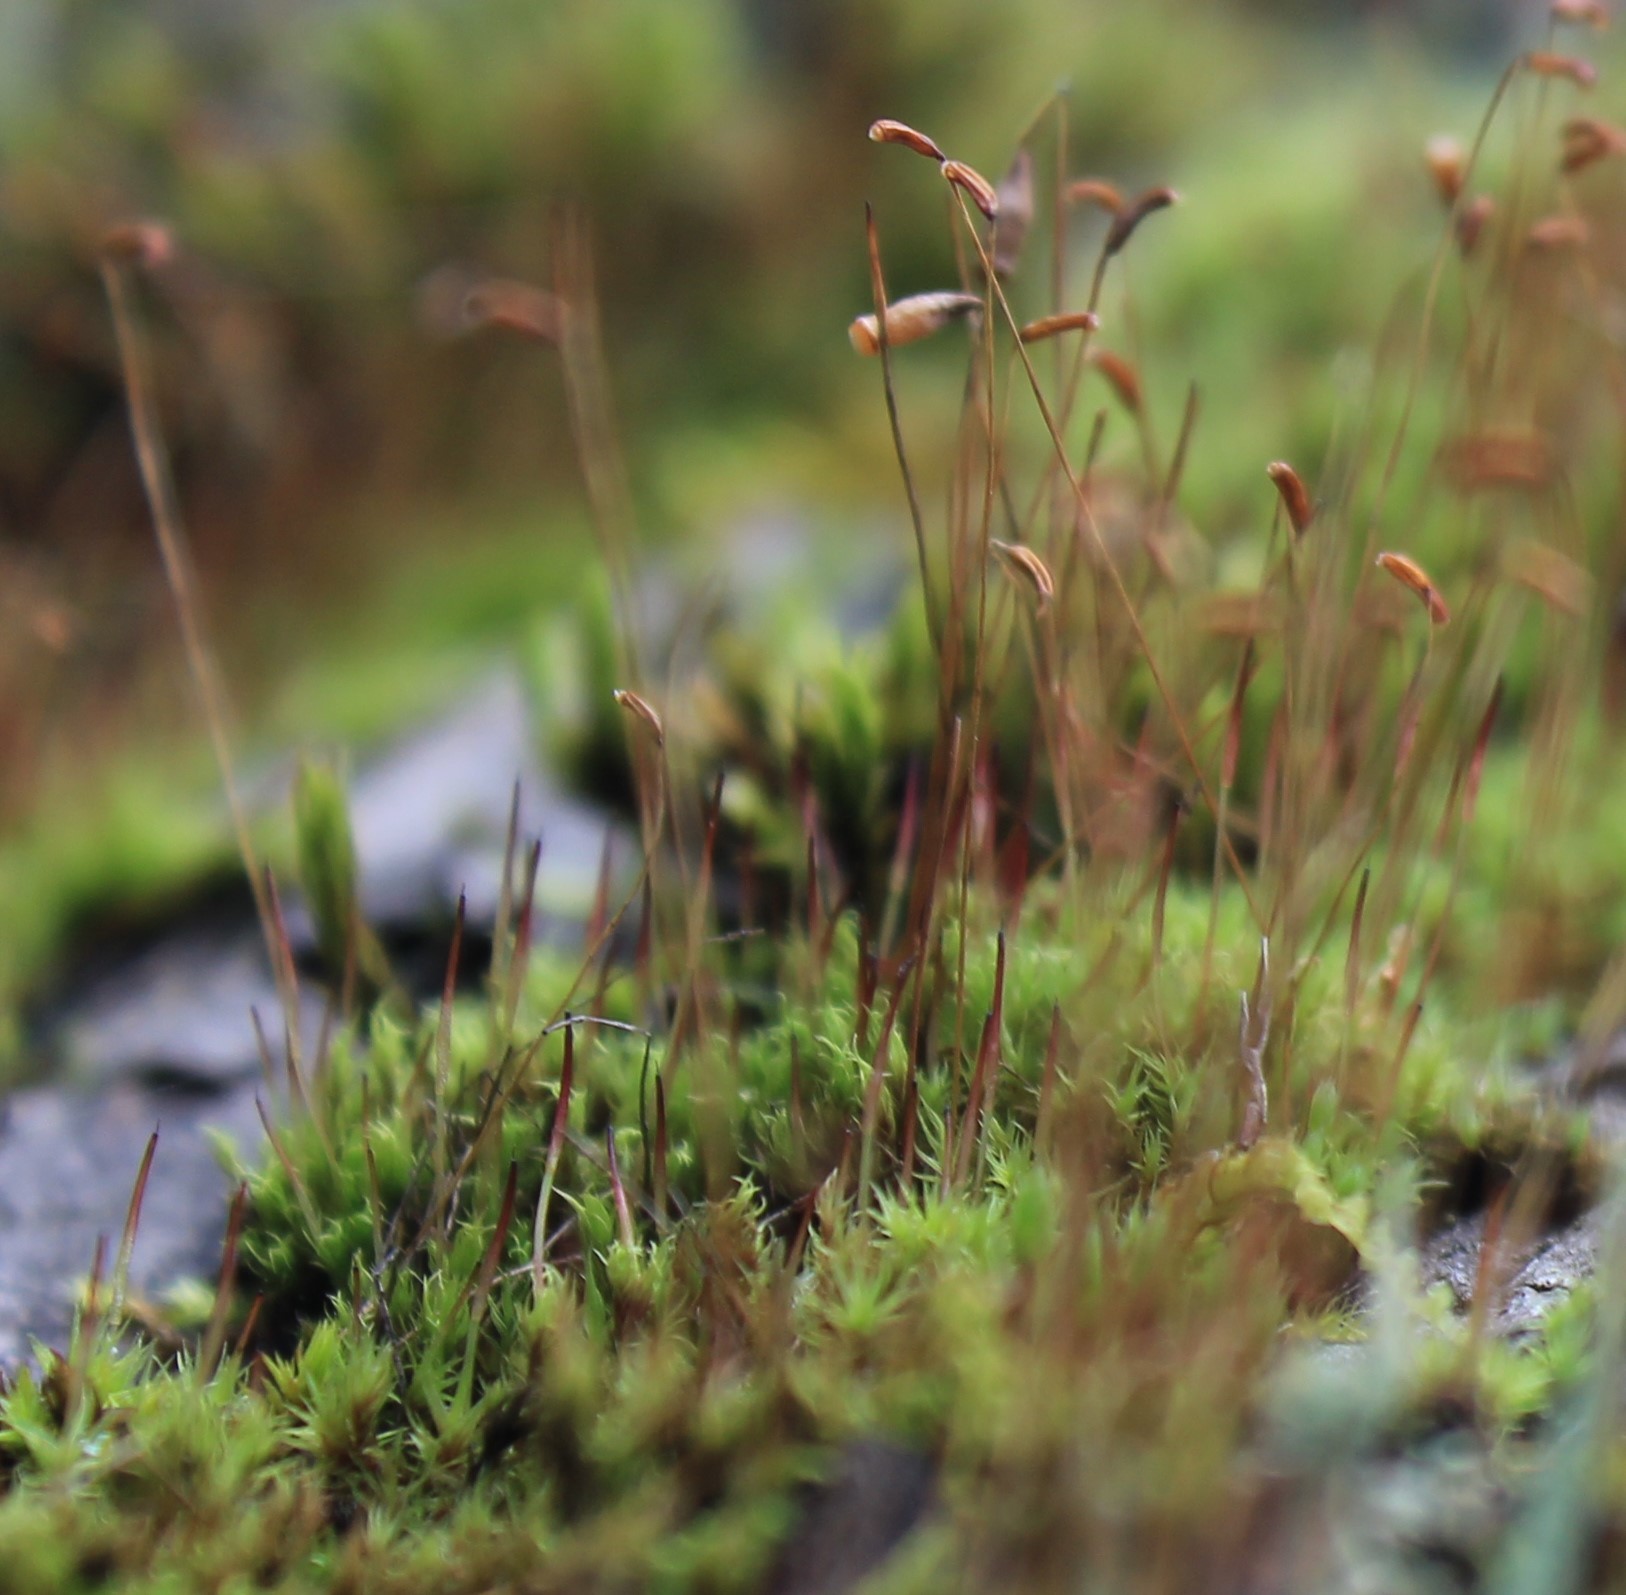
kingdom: Plantae
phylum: Bryophyta
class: Bryopsida
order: Dicranales
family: Ditrichaceae
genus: Ceratodon
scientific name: Ceratodon purpureus
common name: Redshank
